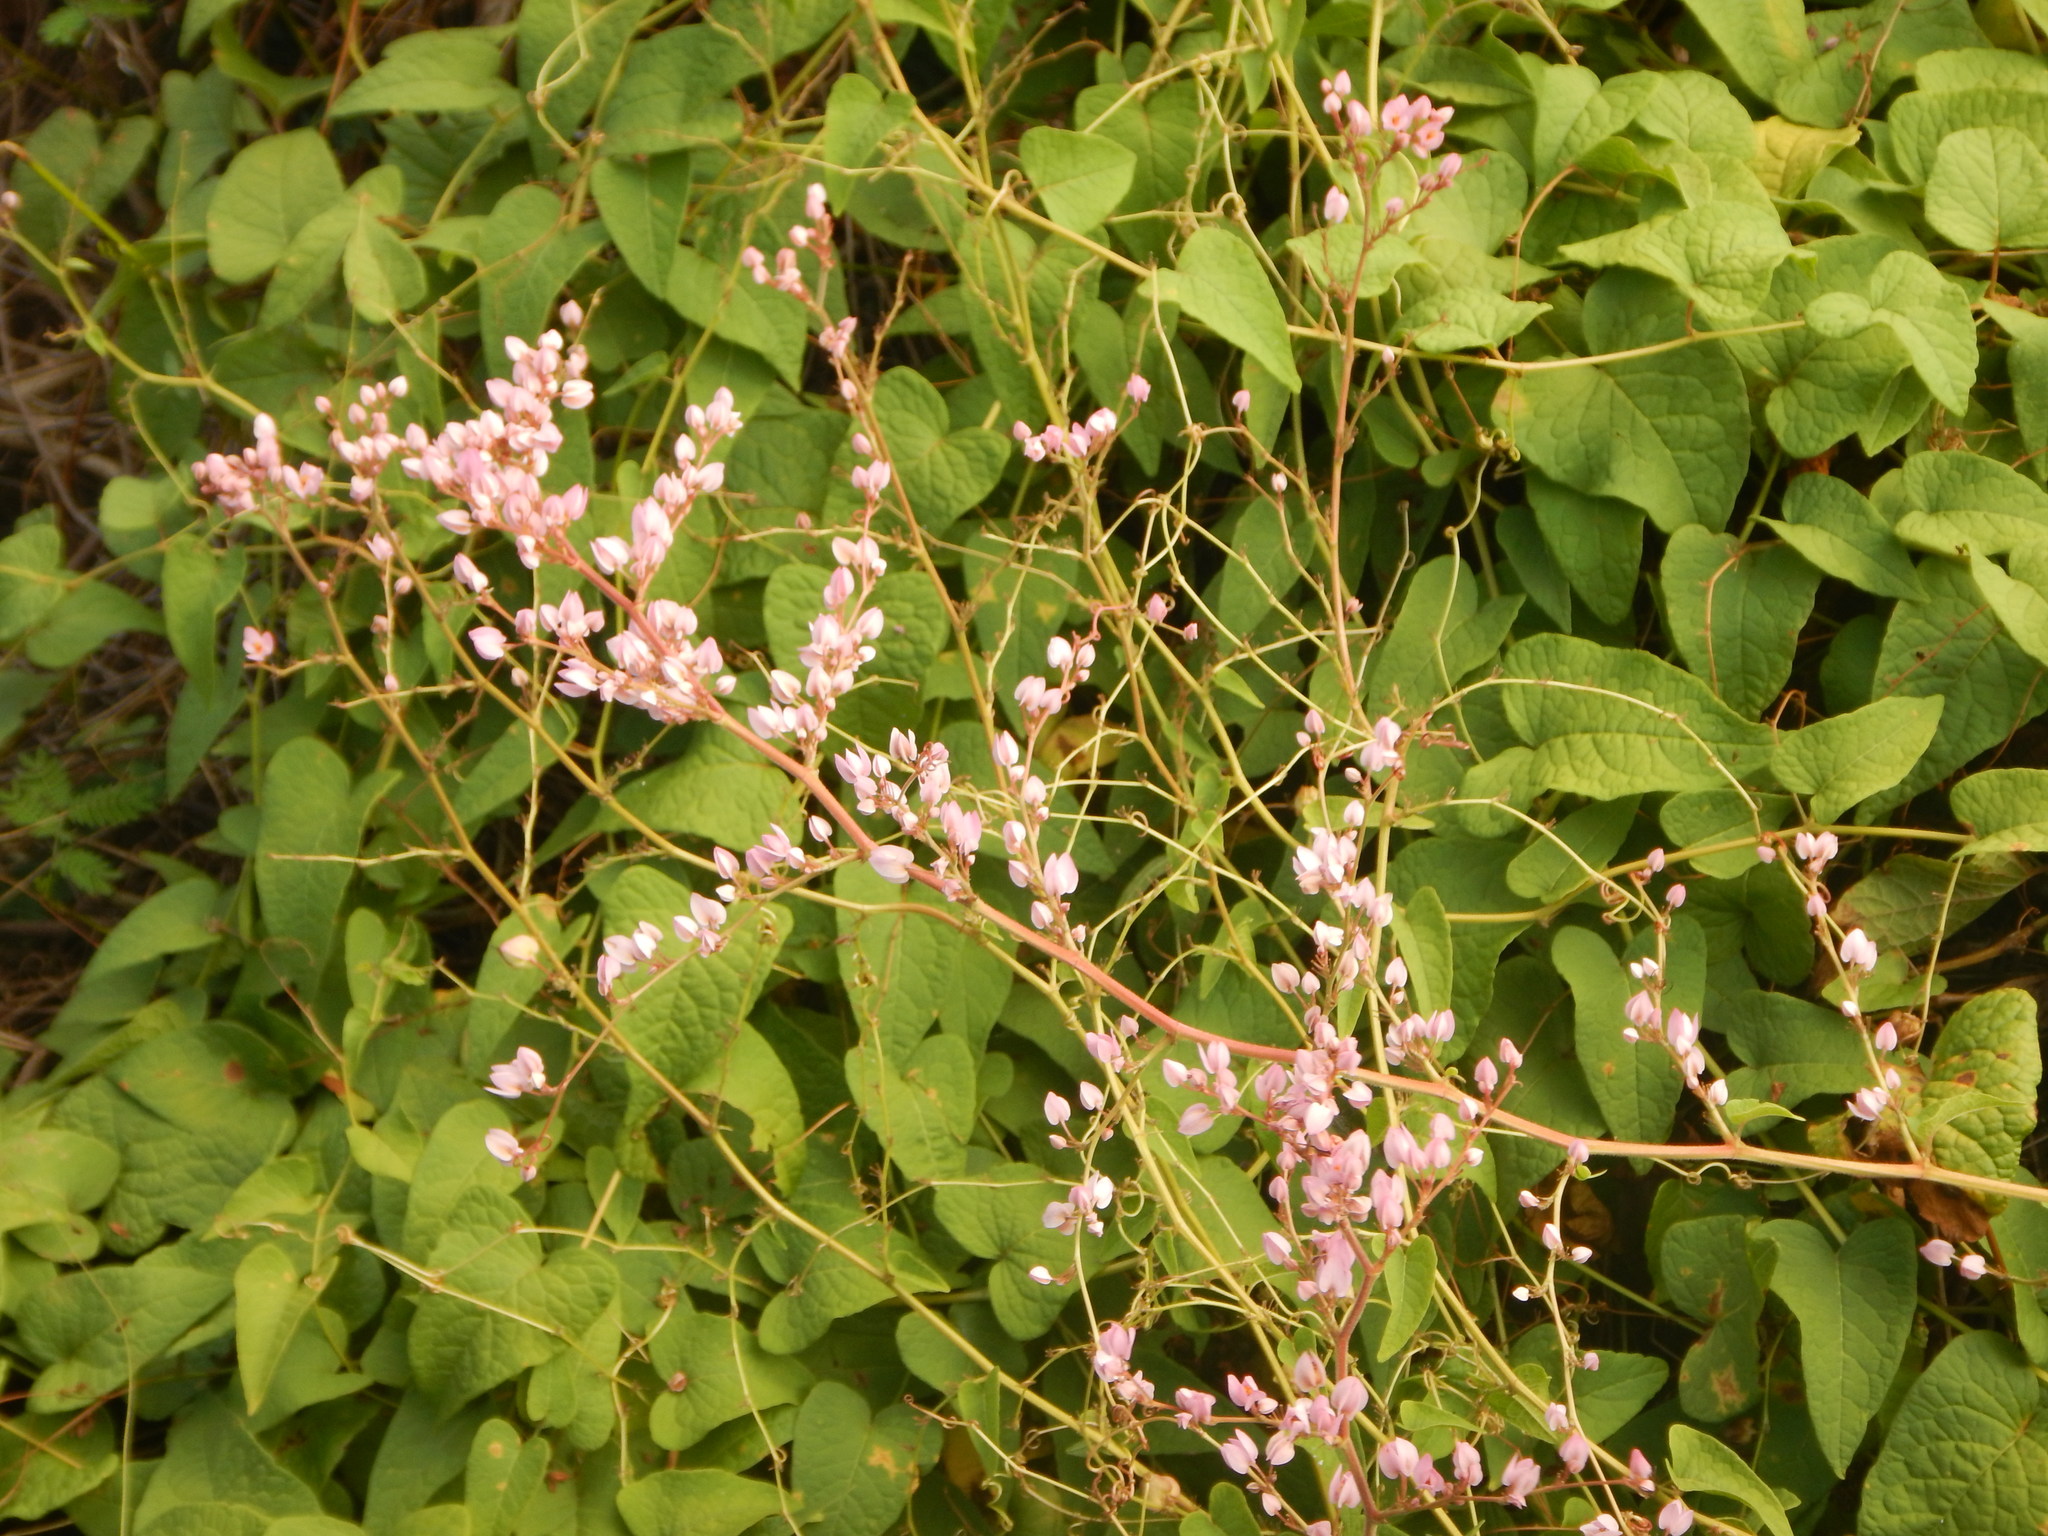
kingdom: Plantae
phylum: Tracheophyta
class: Magnoliopsida
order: Caryophyllales
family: Polygonaceae
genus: Antigonon
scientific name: Antigonon leptopus
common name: Coral vine
